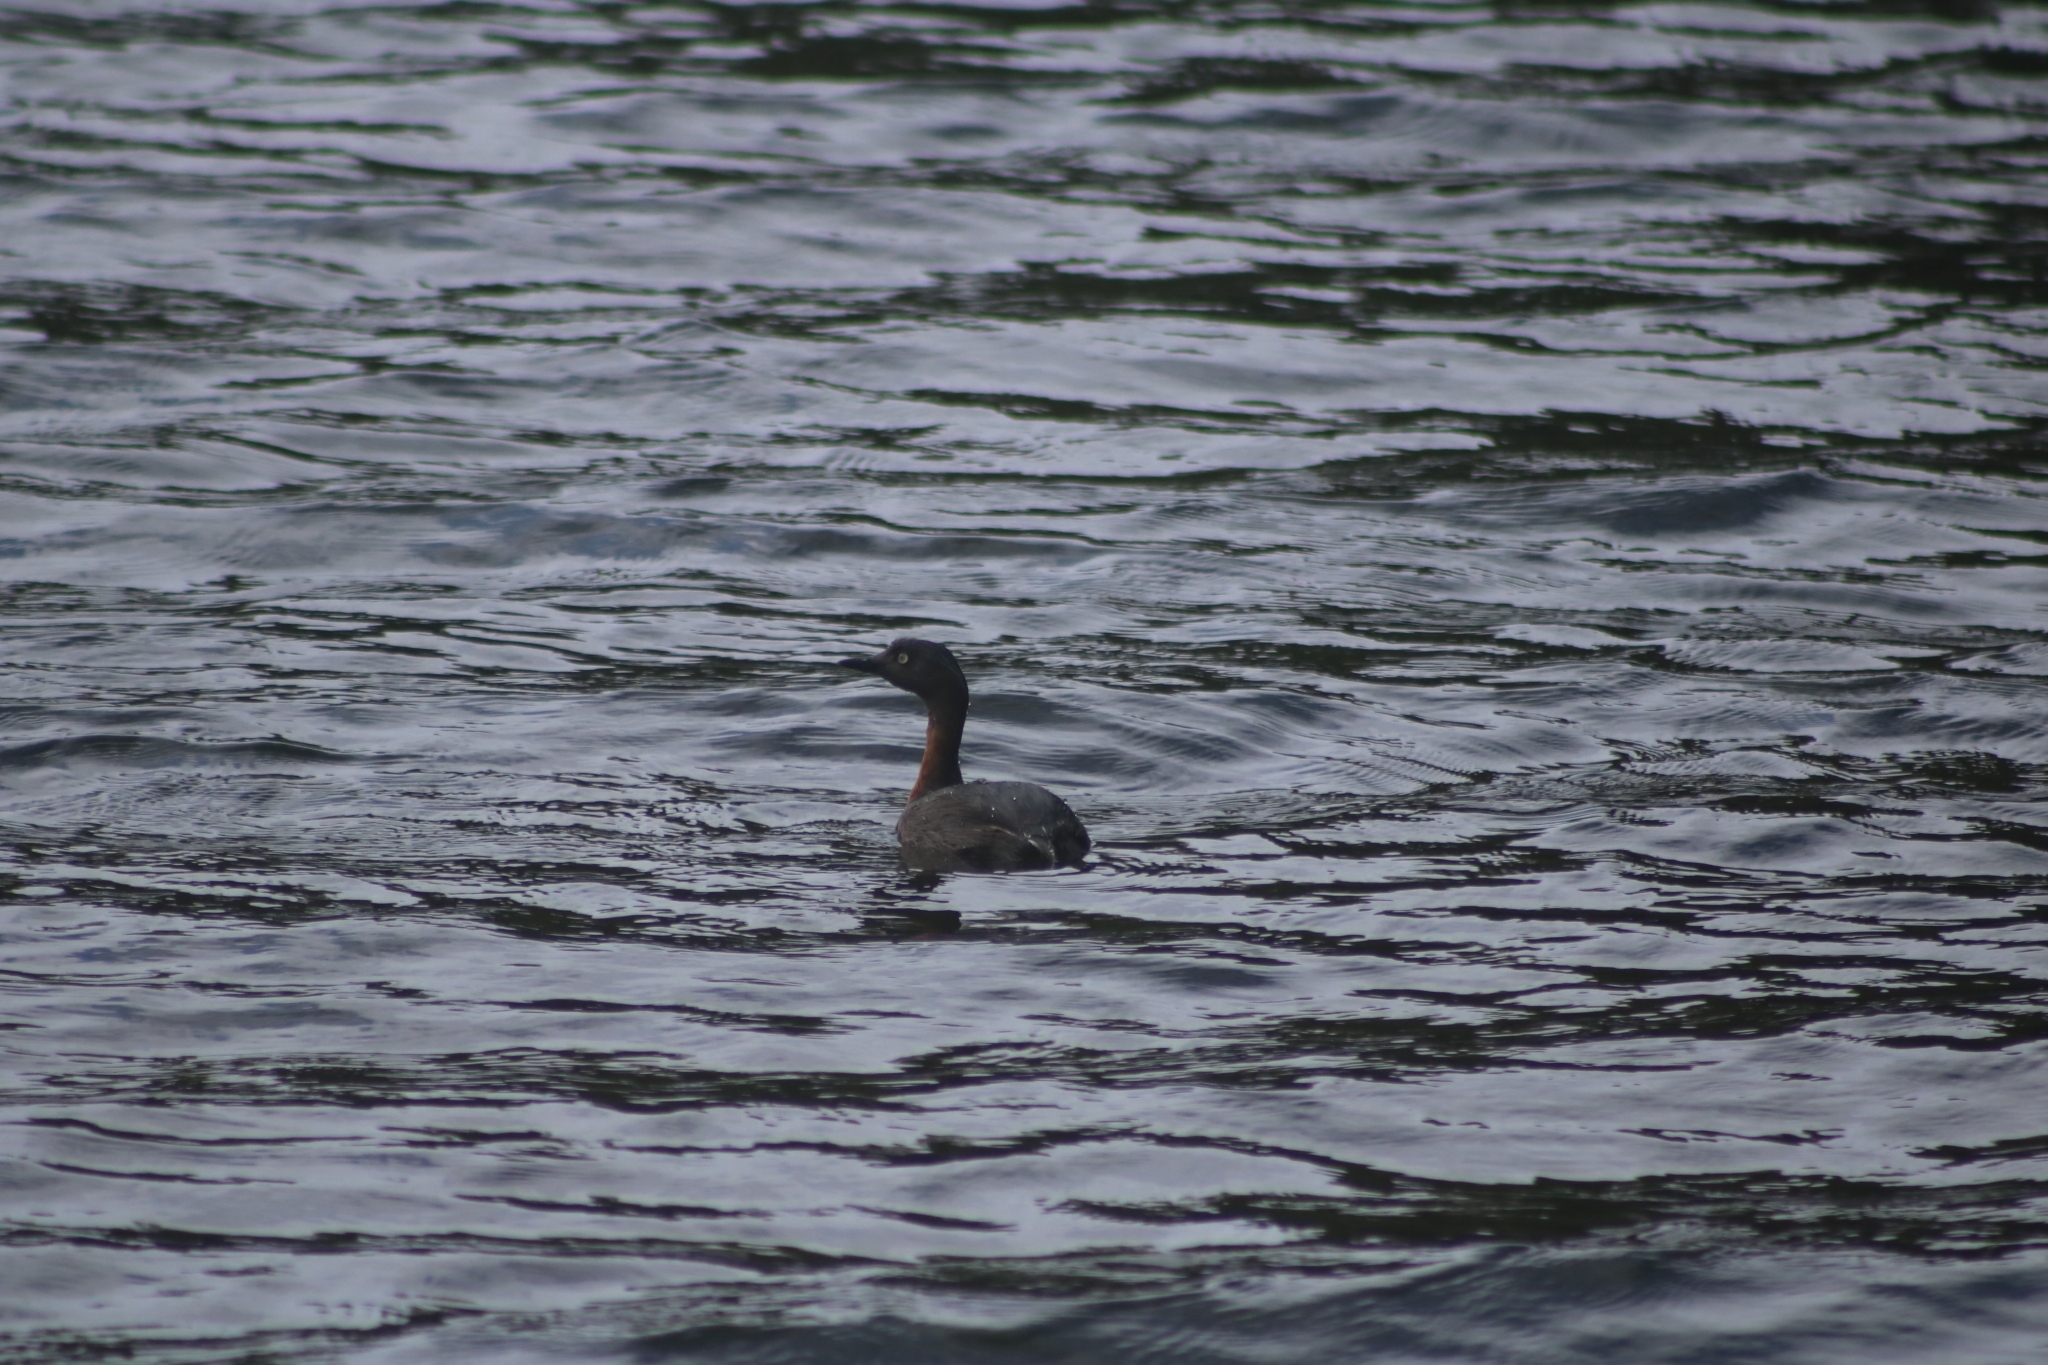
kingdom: Animalia
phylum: Chordata
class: Aves
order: Podicipediformes
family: Podicipedidae
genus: Poliocephalus
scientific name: Poliocephalus rufopectus
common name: New zealand grebe
